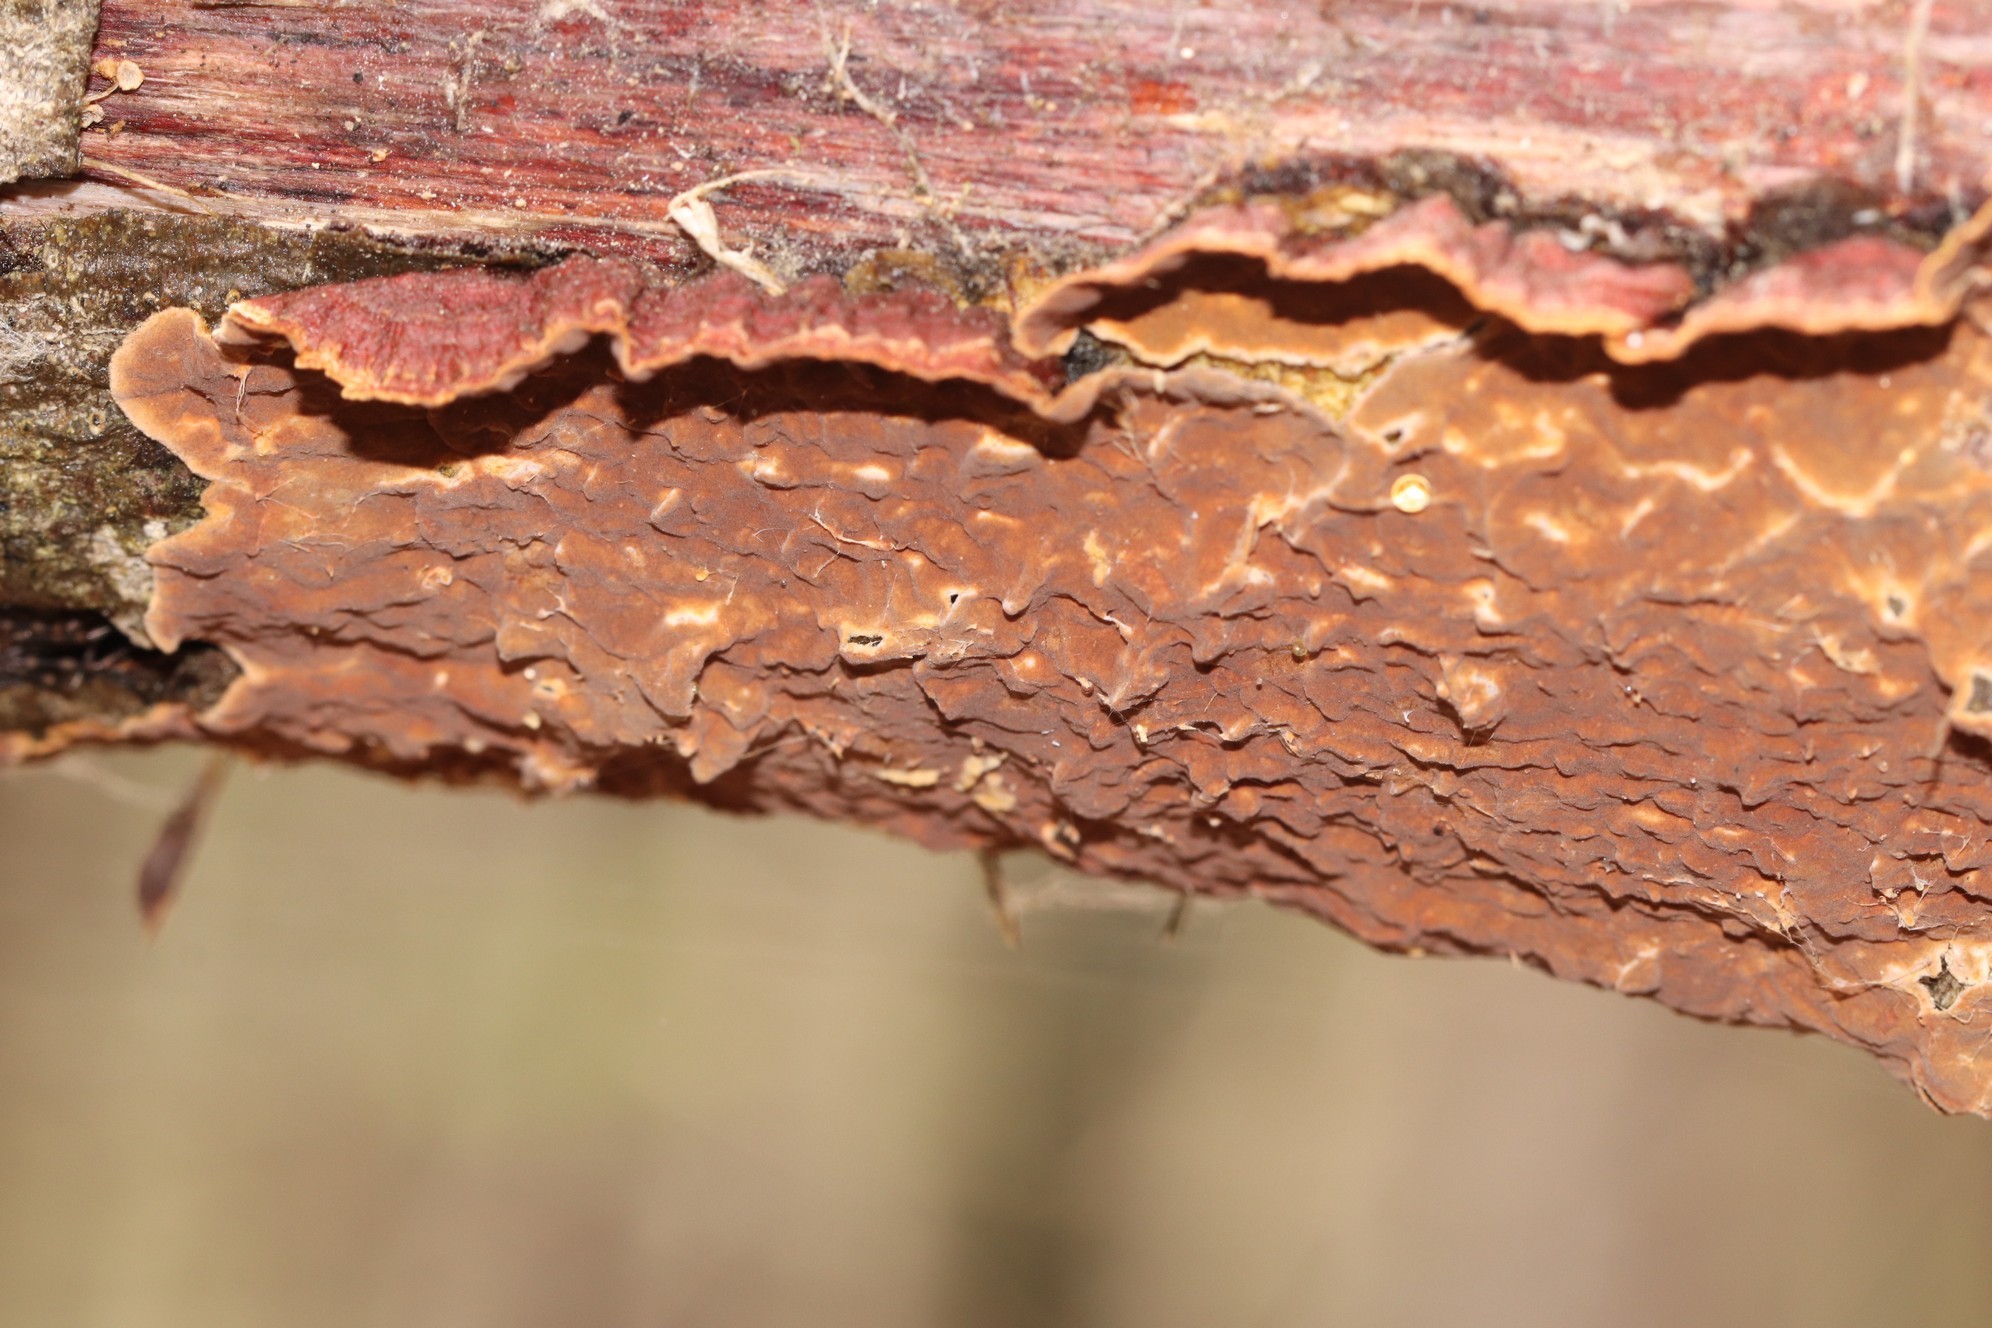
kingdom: Fungi
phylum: Basidiomycota
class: Agaricomycetes
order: Hymenochaetales
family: Hymenochaetaceae
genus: Hydnoporia
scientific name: Hydnoporia tabacina
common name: Willow glue
